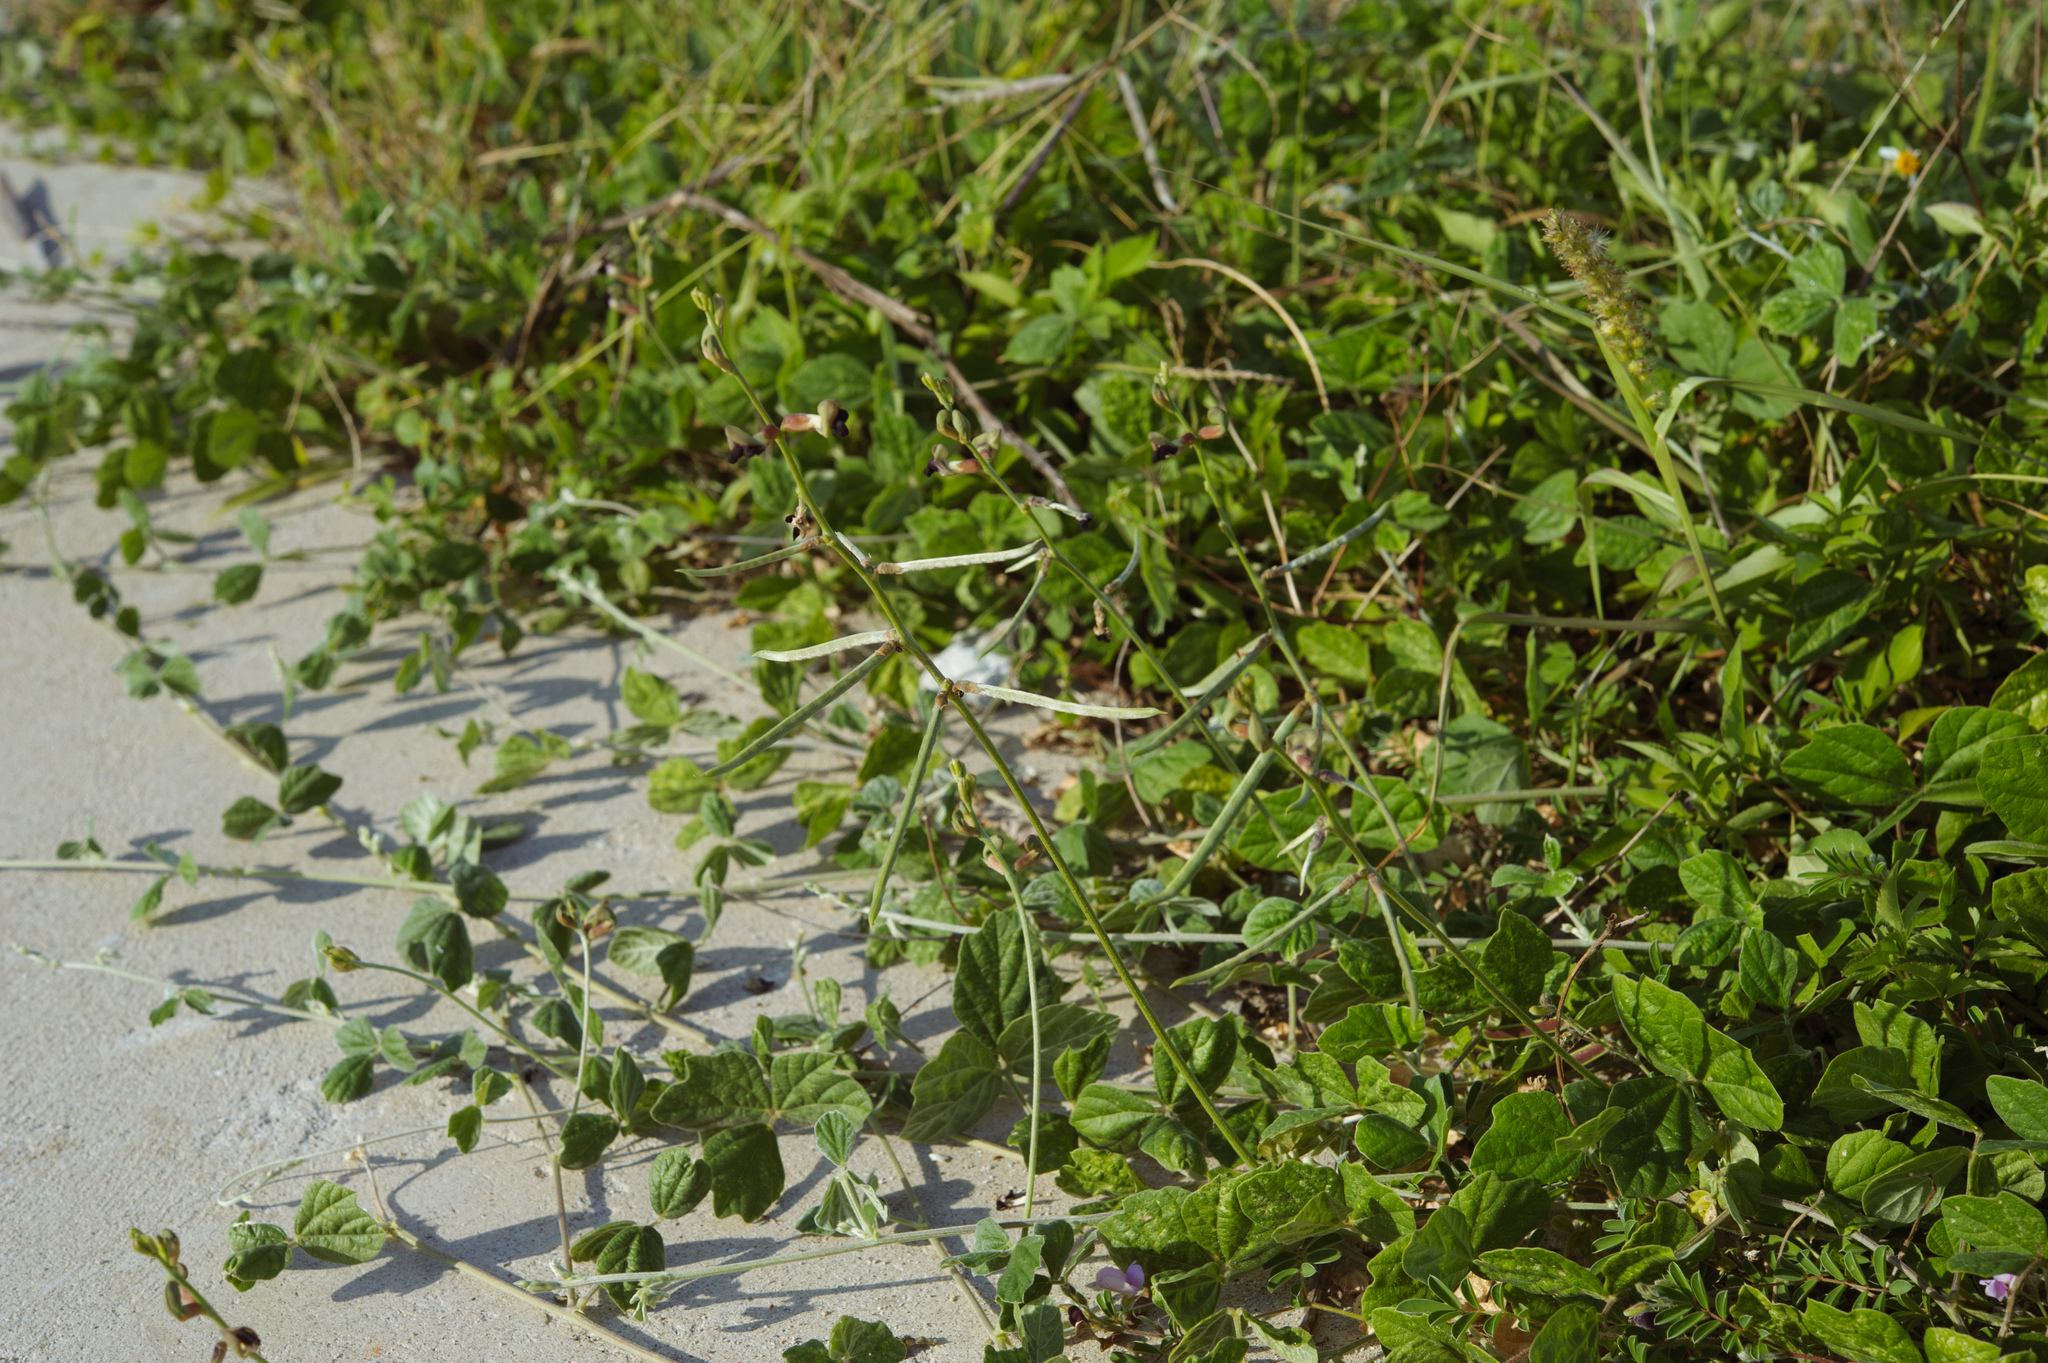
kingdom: Plantae
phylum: Tracheophyta
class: Magnoliopsida
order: Fabales
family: Fabaceae
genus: Macroptilium
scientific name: Macroptilium atropurpureum
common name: Purple bushbean
